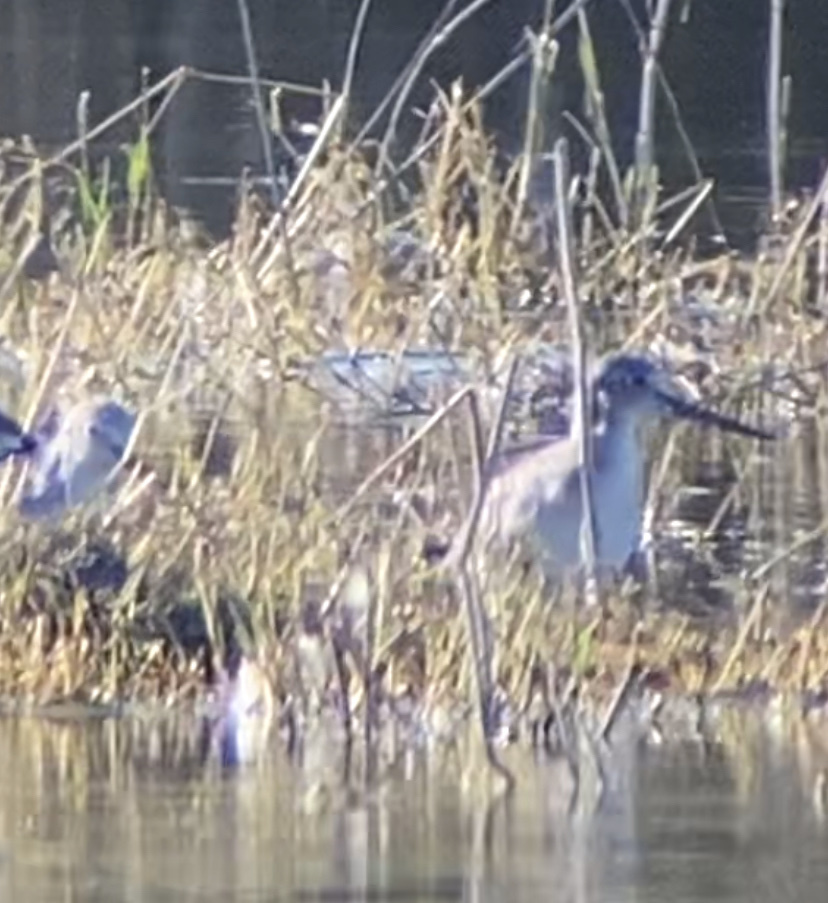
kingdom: Animalia
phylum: Chordata
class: Aves
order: Charadriiformes
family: Scolopacidae
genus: Tringa
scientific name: Tringa nebularia
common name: Common greenshank
